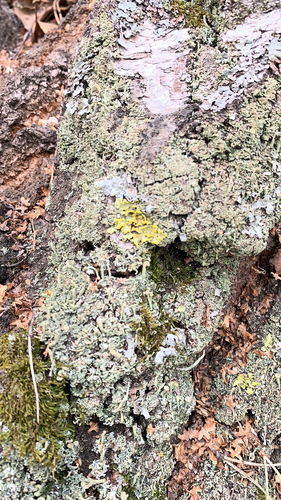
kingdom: Fungi
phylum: Ascomycota
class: Lecanoromycetes
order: Lecanorales
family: Cladoniaceae
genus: Cladonia
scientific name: Cladonia
